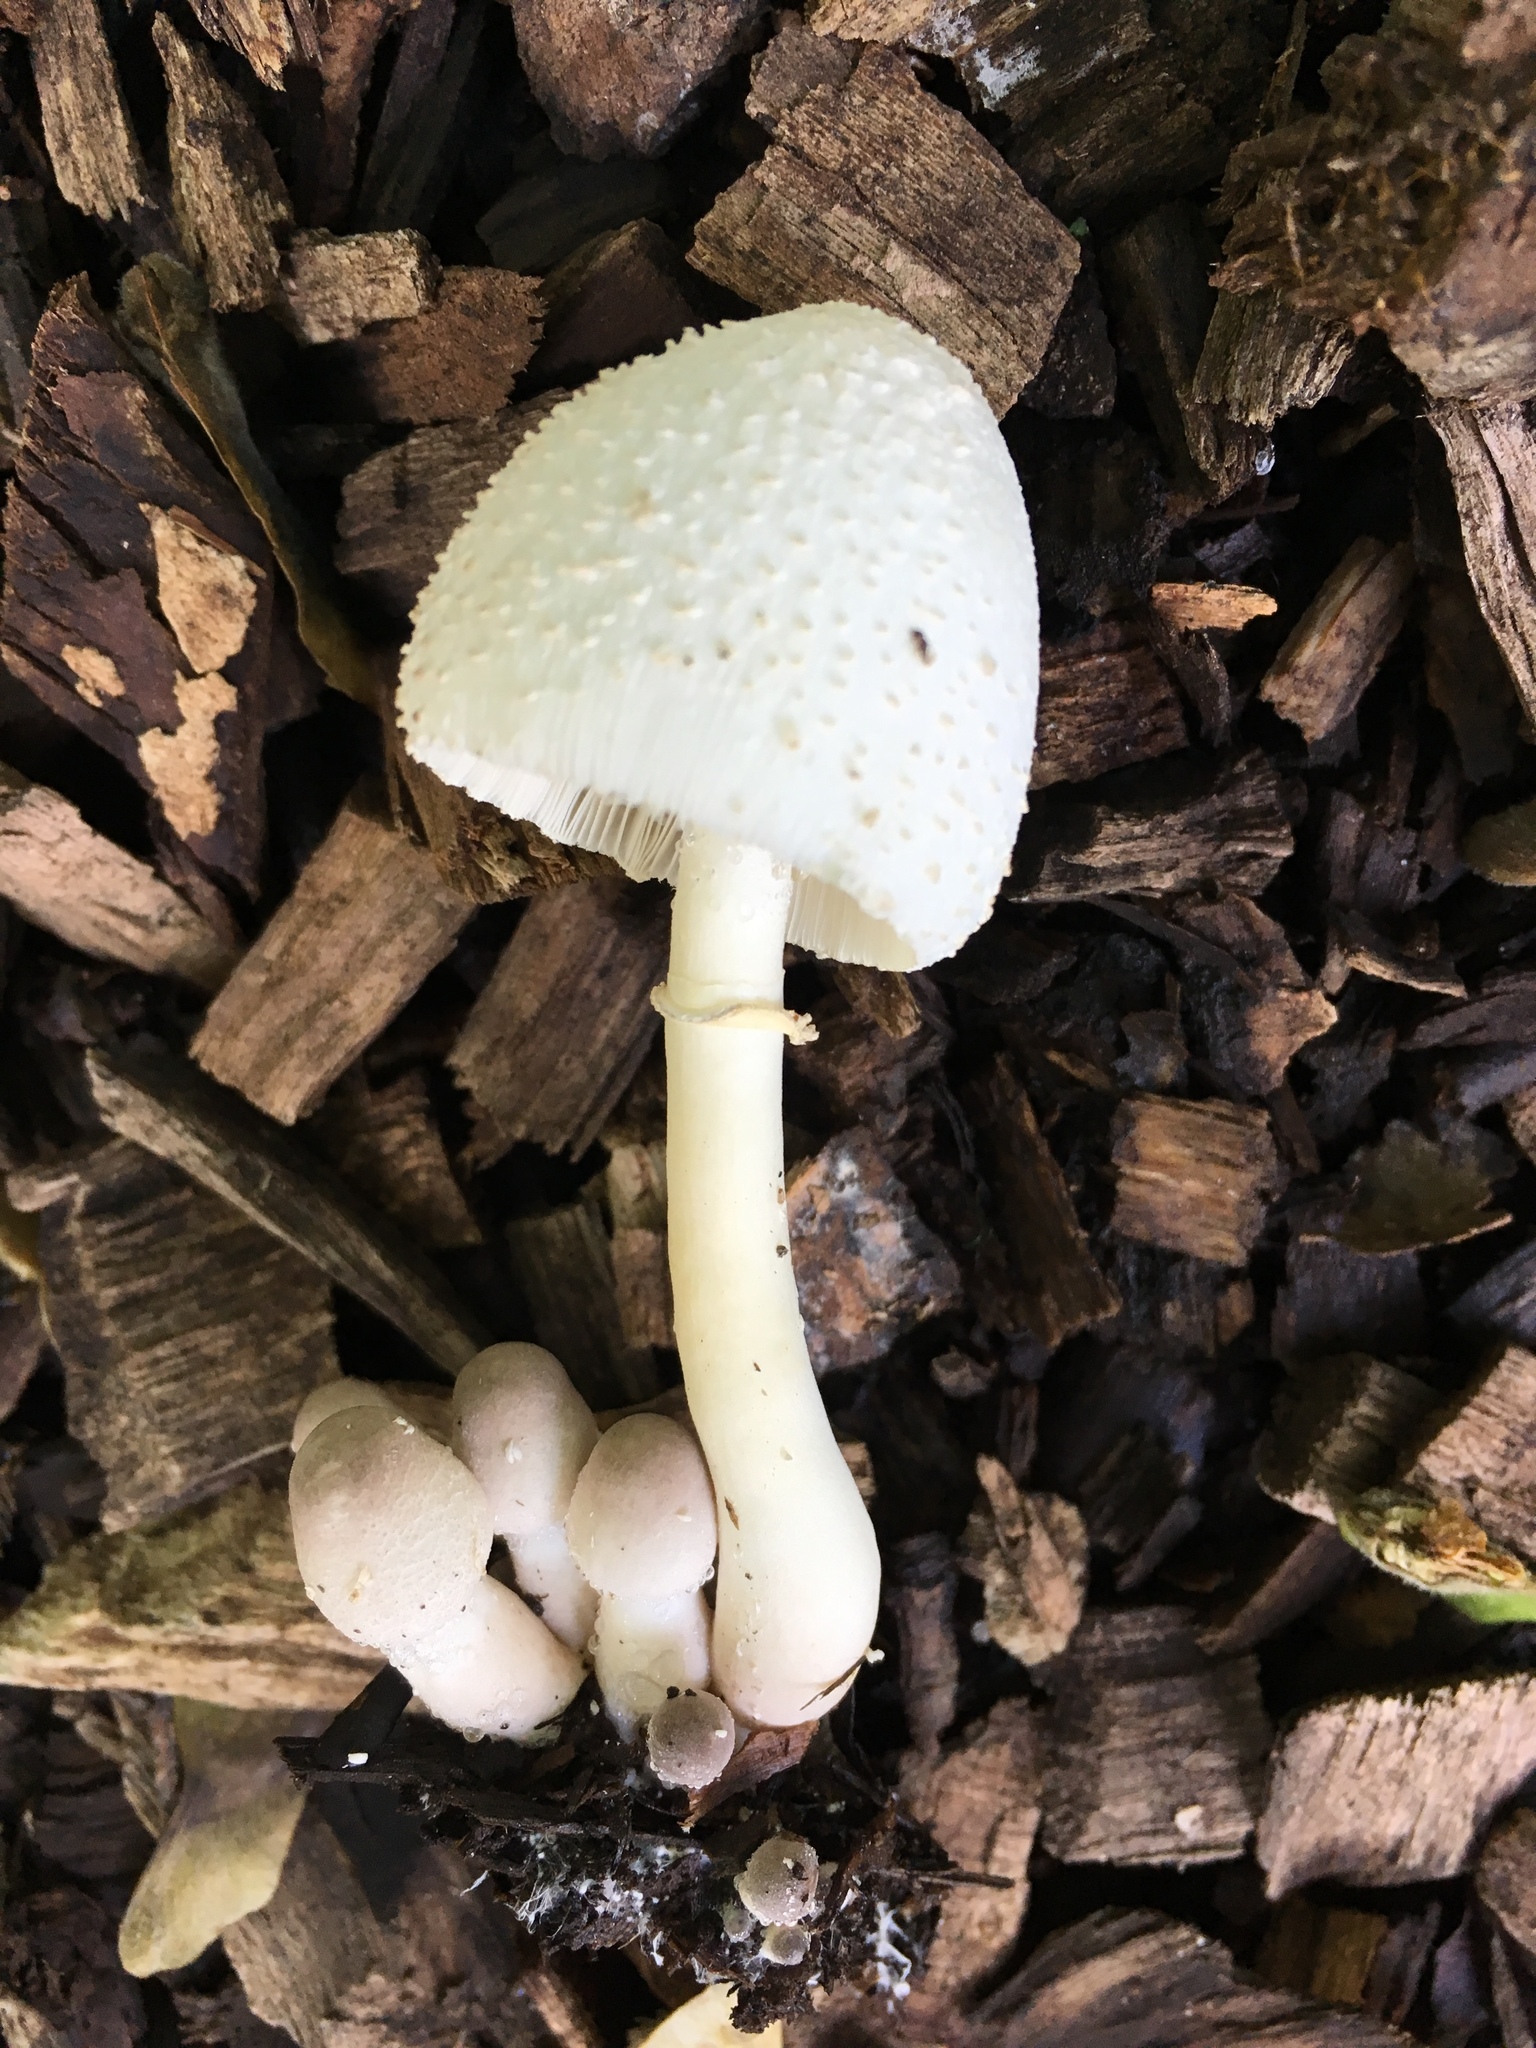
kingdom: Fungi
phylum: Basidiomycota
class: Agaricomycetes
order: Agaricales
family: Agaricaceae
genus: Leucocoprinus
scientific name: Leucocoprinus cepistipes
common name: Onion-stalk parasol
